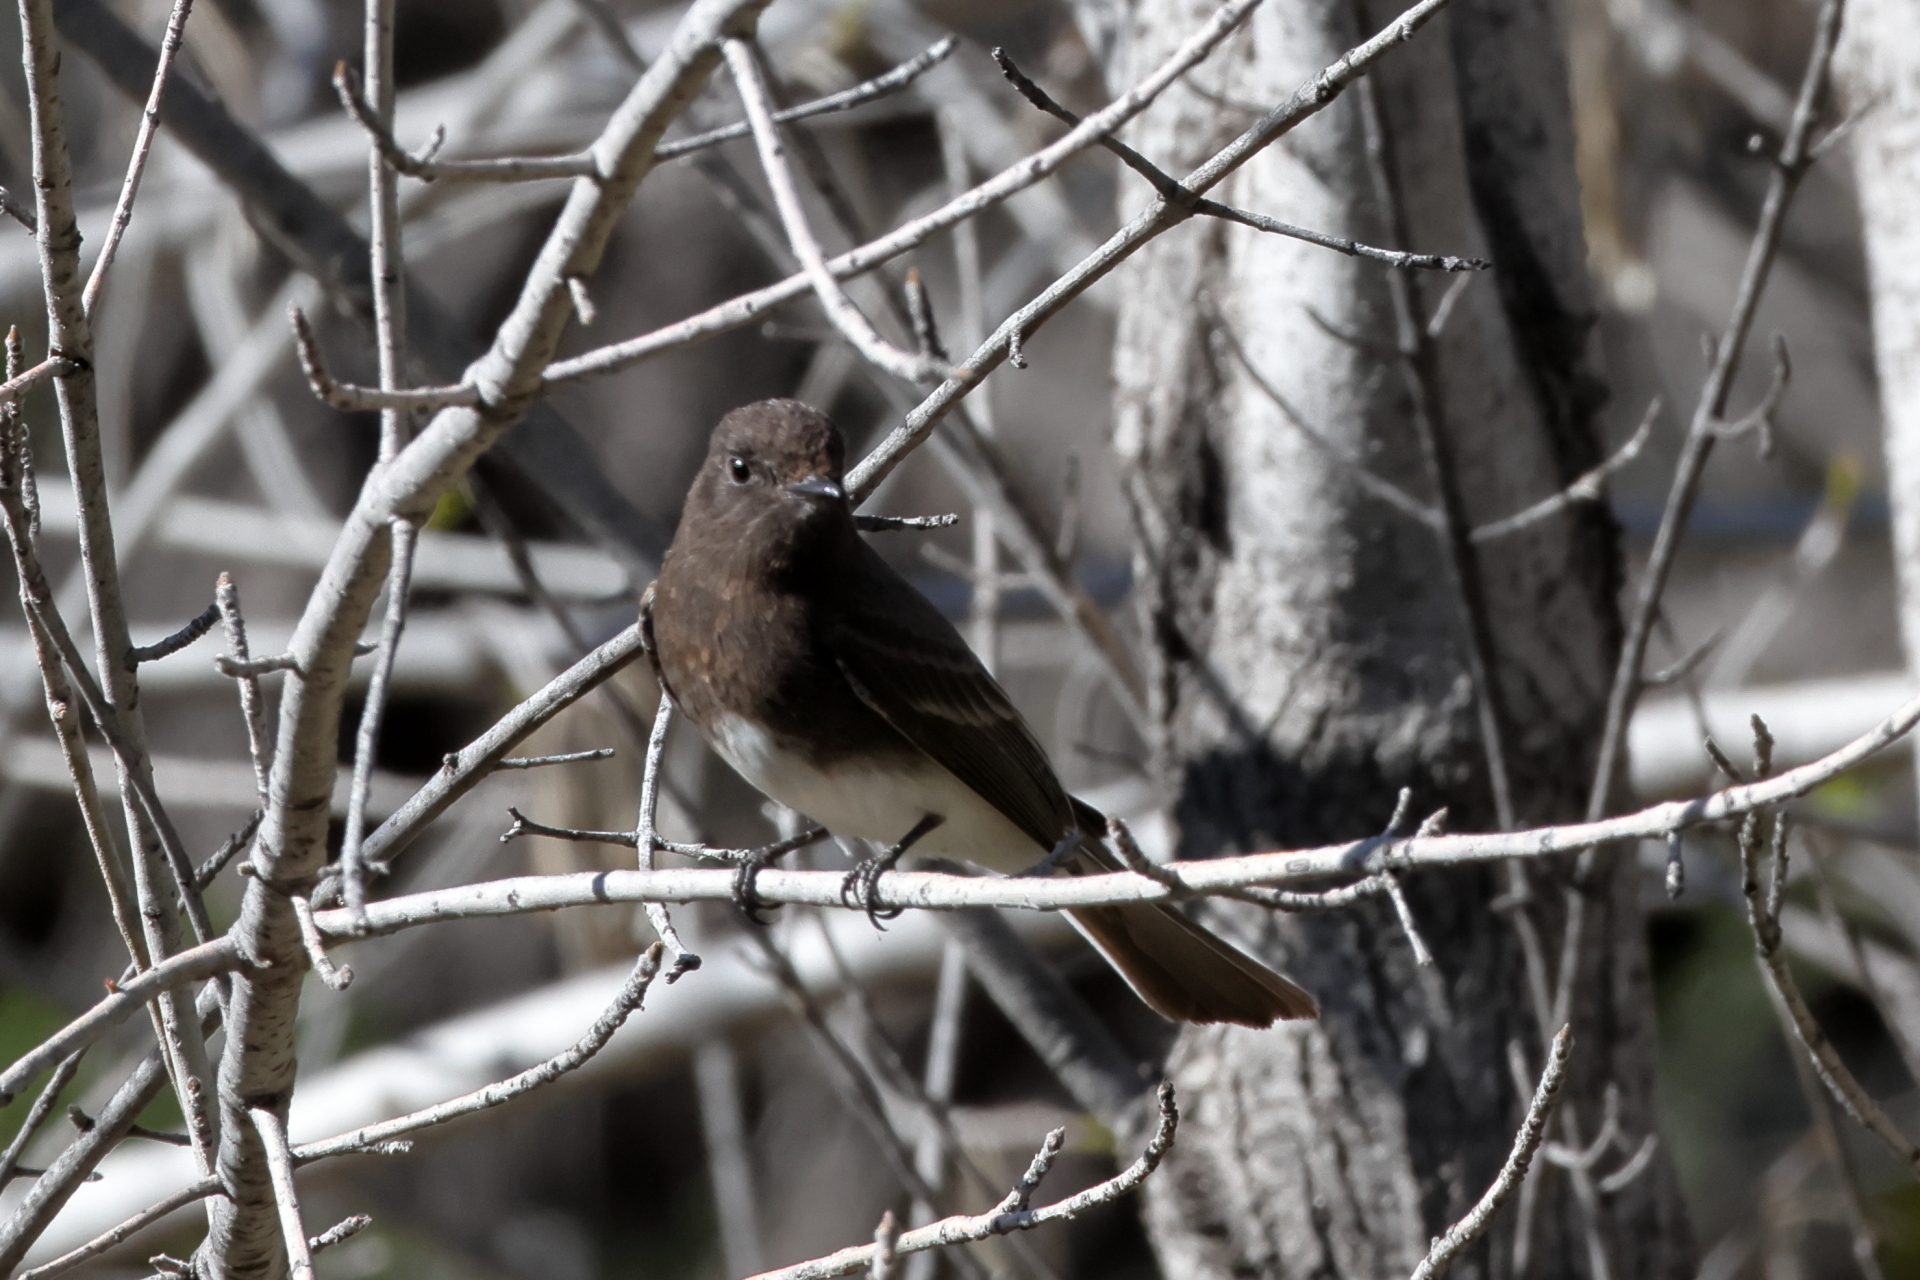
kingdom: Animalia
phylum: Chordata
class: Aves
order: Passeriformes
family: Tyrannidae
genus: Sayornis
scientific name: Sayornis nigricans
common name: Black phoebe
